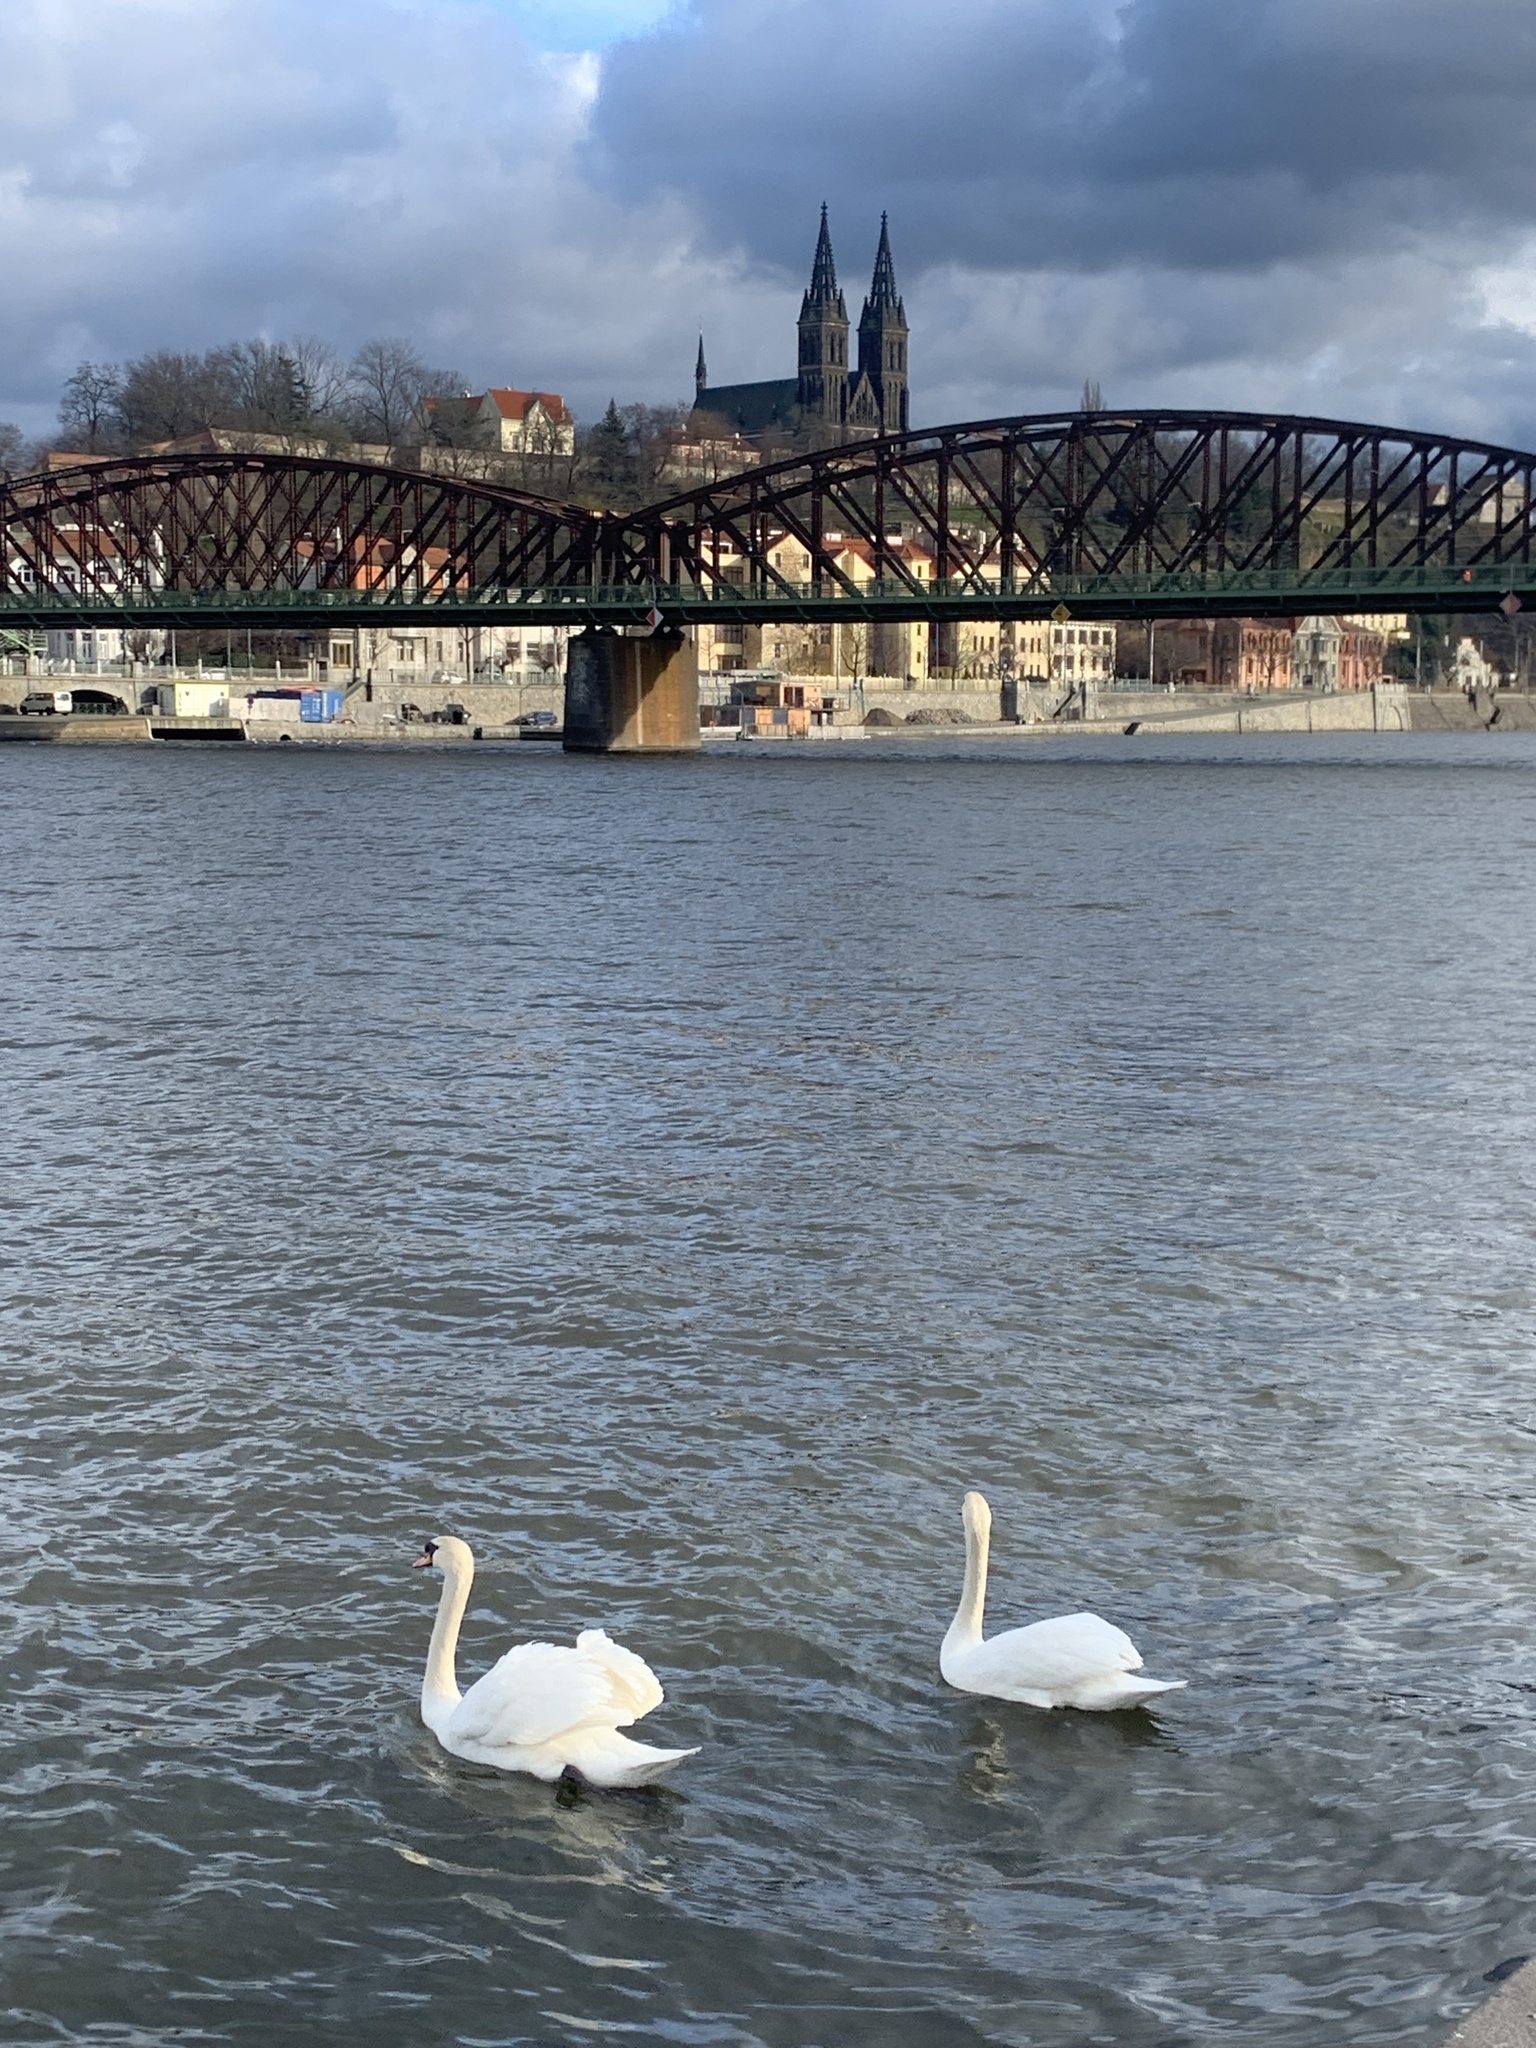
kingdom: Animalia
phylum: Chordata
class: Aves
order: Anseriformes
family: Anatidae
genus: Cygnus
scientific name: Cygnus olor
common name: Mute swan
